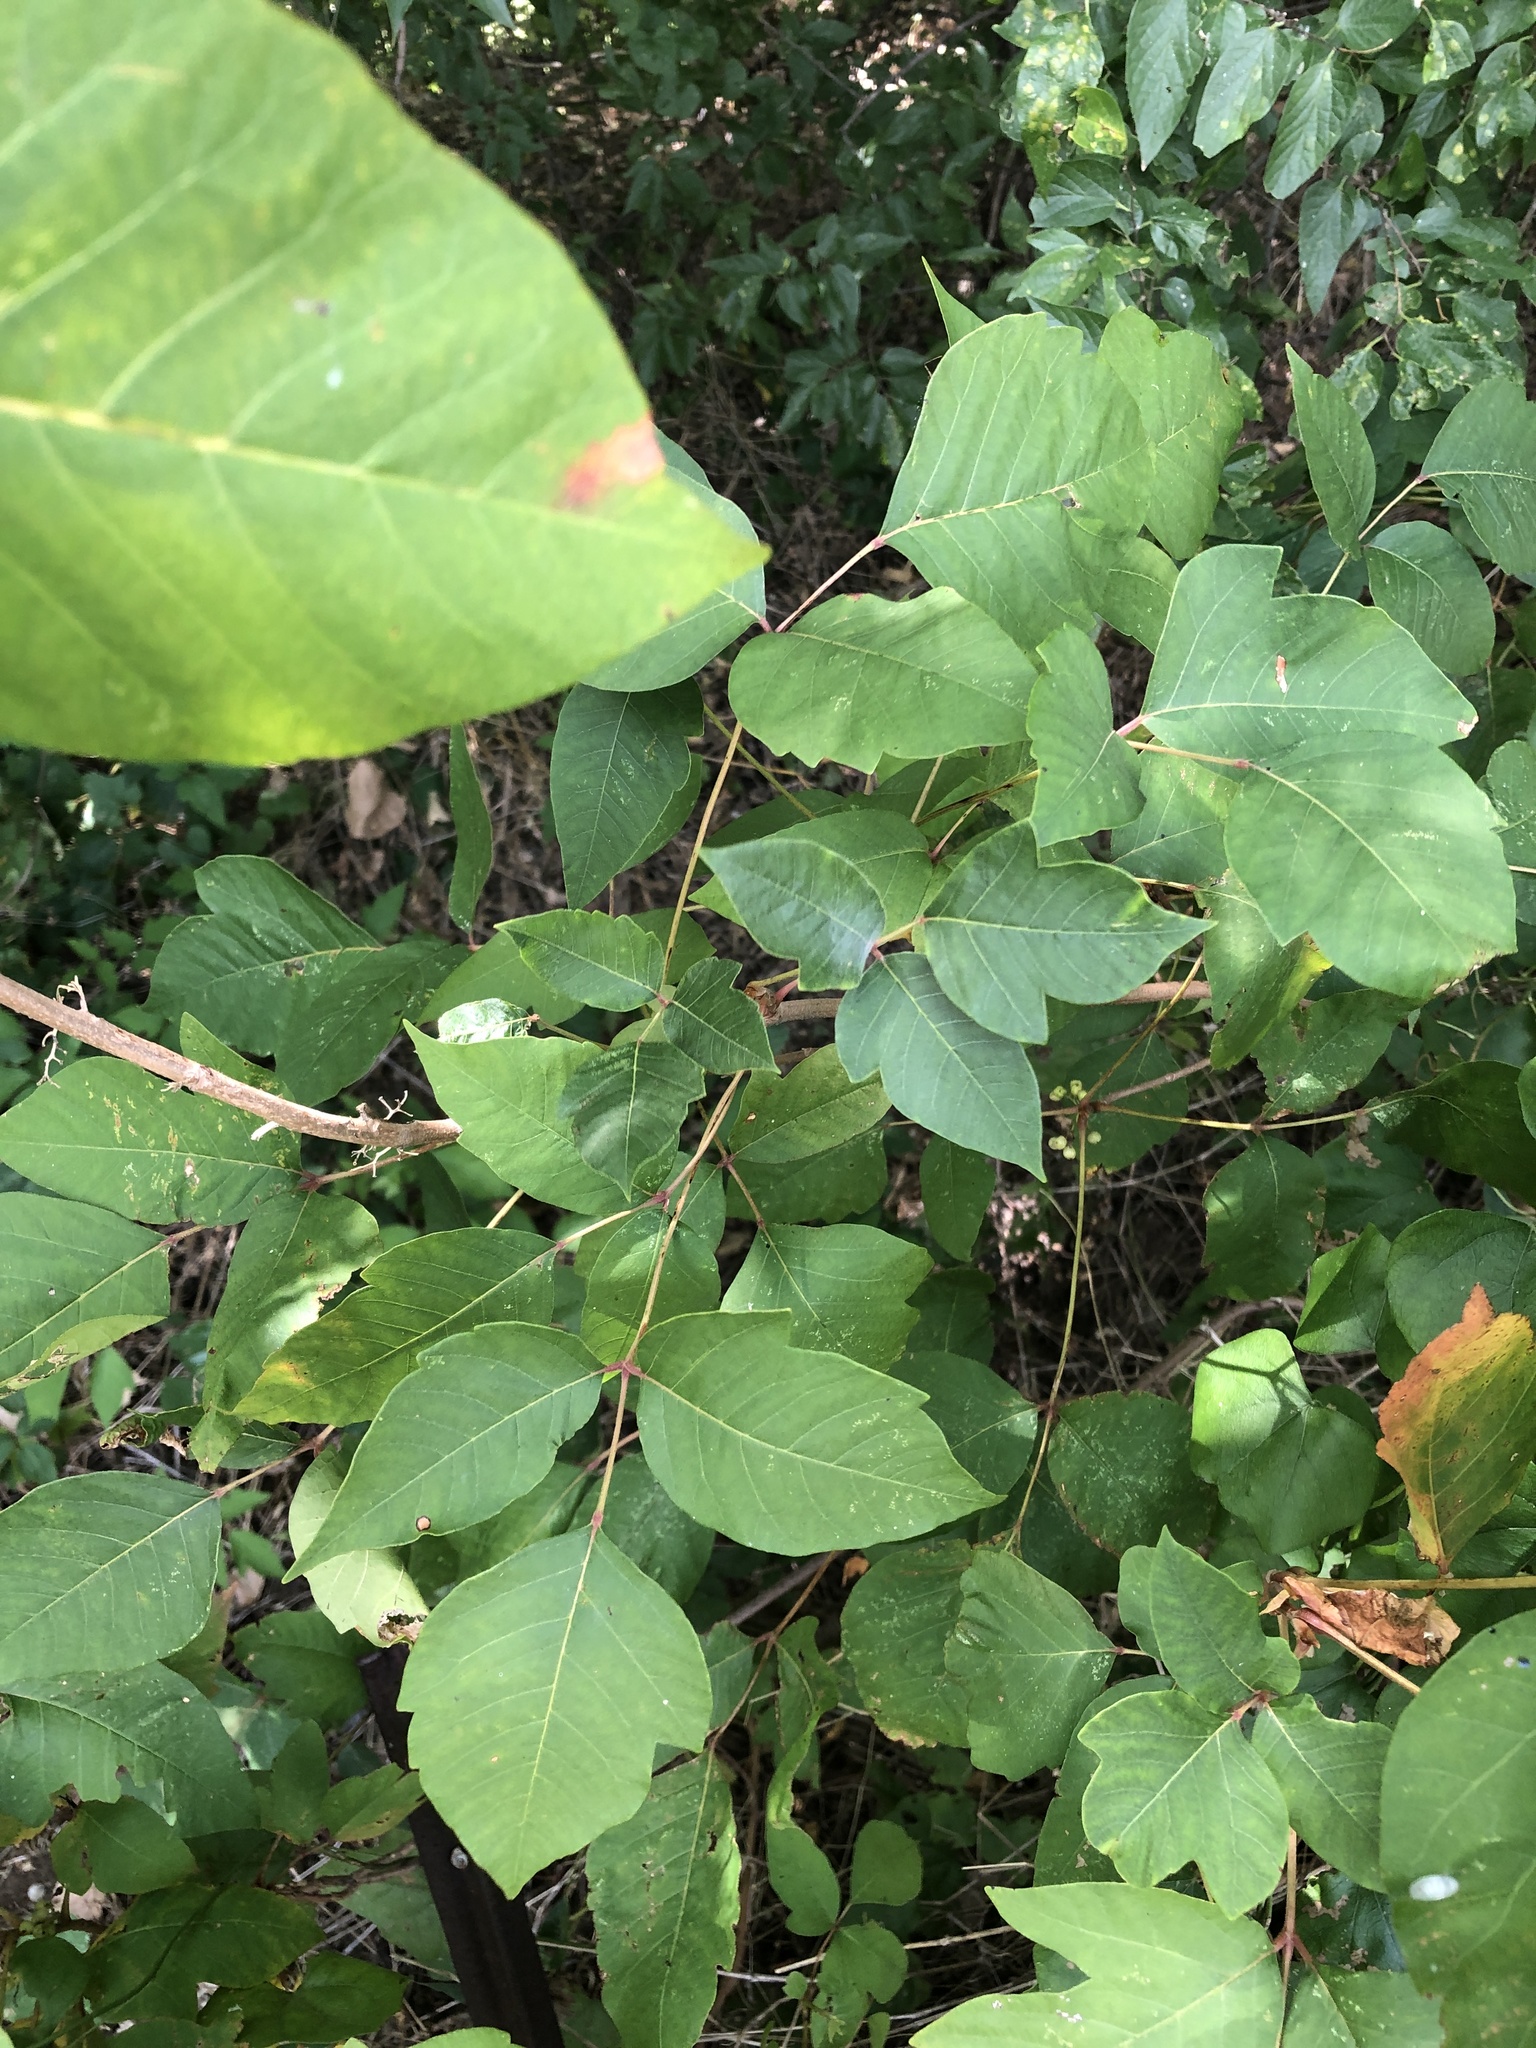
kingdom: Plantae
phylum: Tracheophyta
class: Magnoliopsida
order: Sapindales
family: Anacardiaceae
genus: Toxicodendron
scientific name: Toxicodendron radicans
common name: Poison ivy
